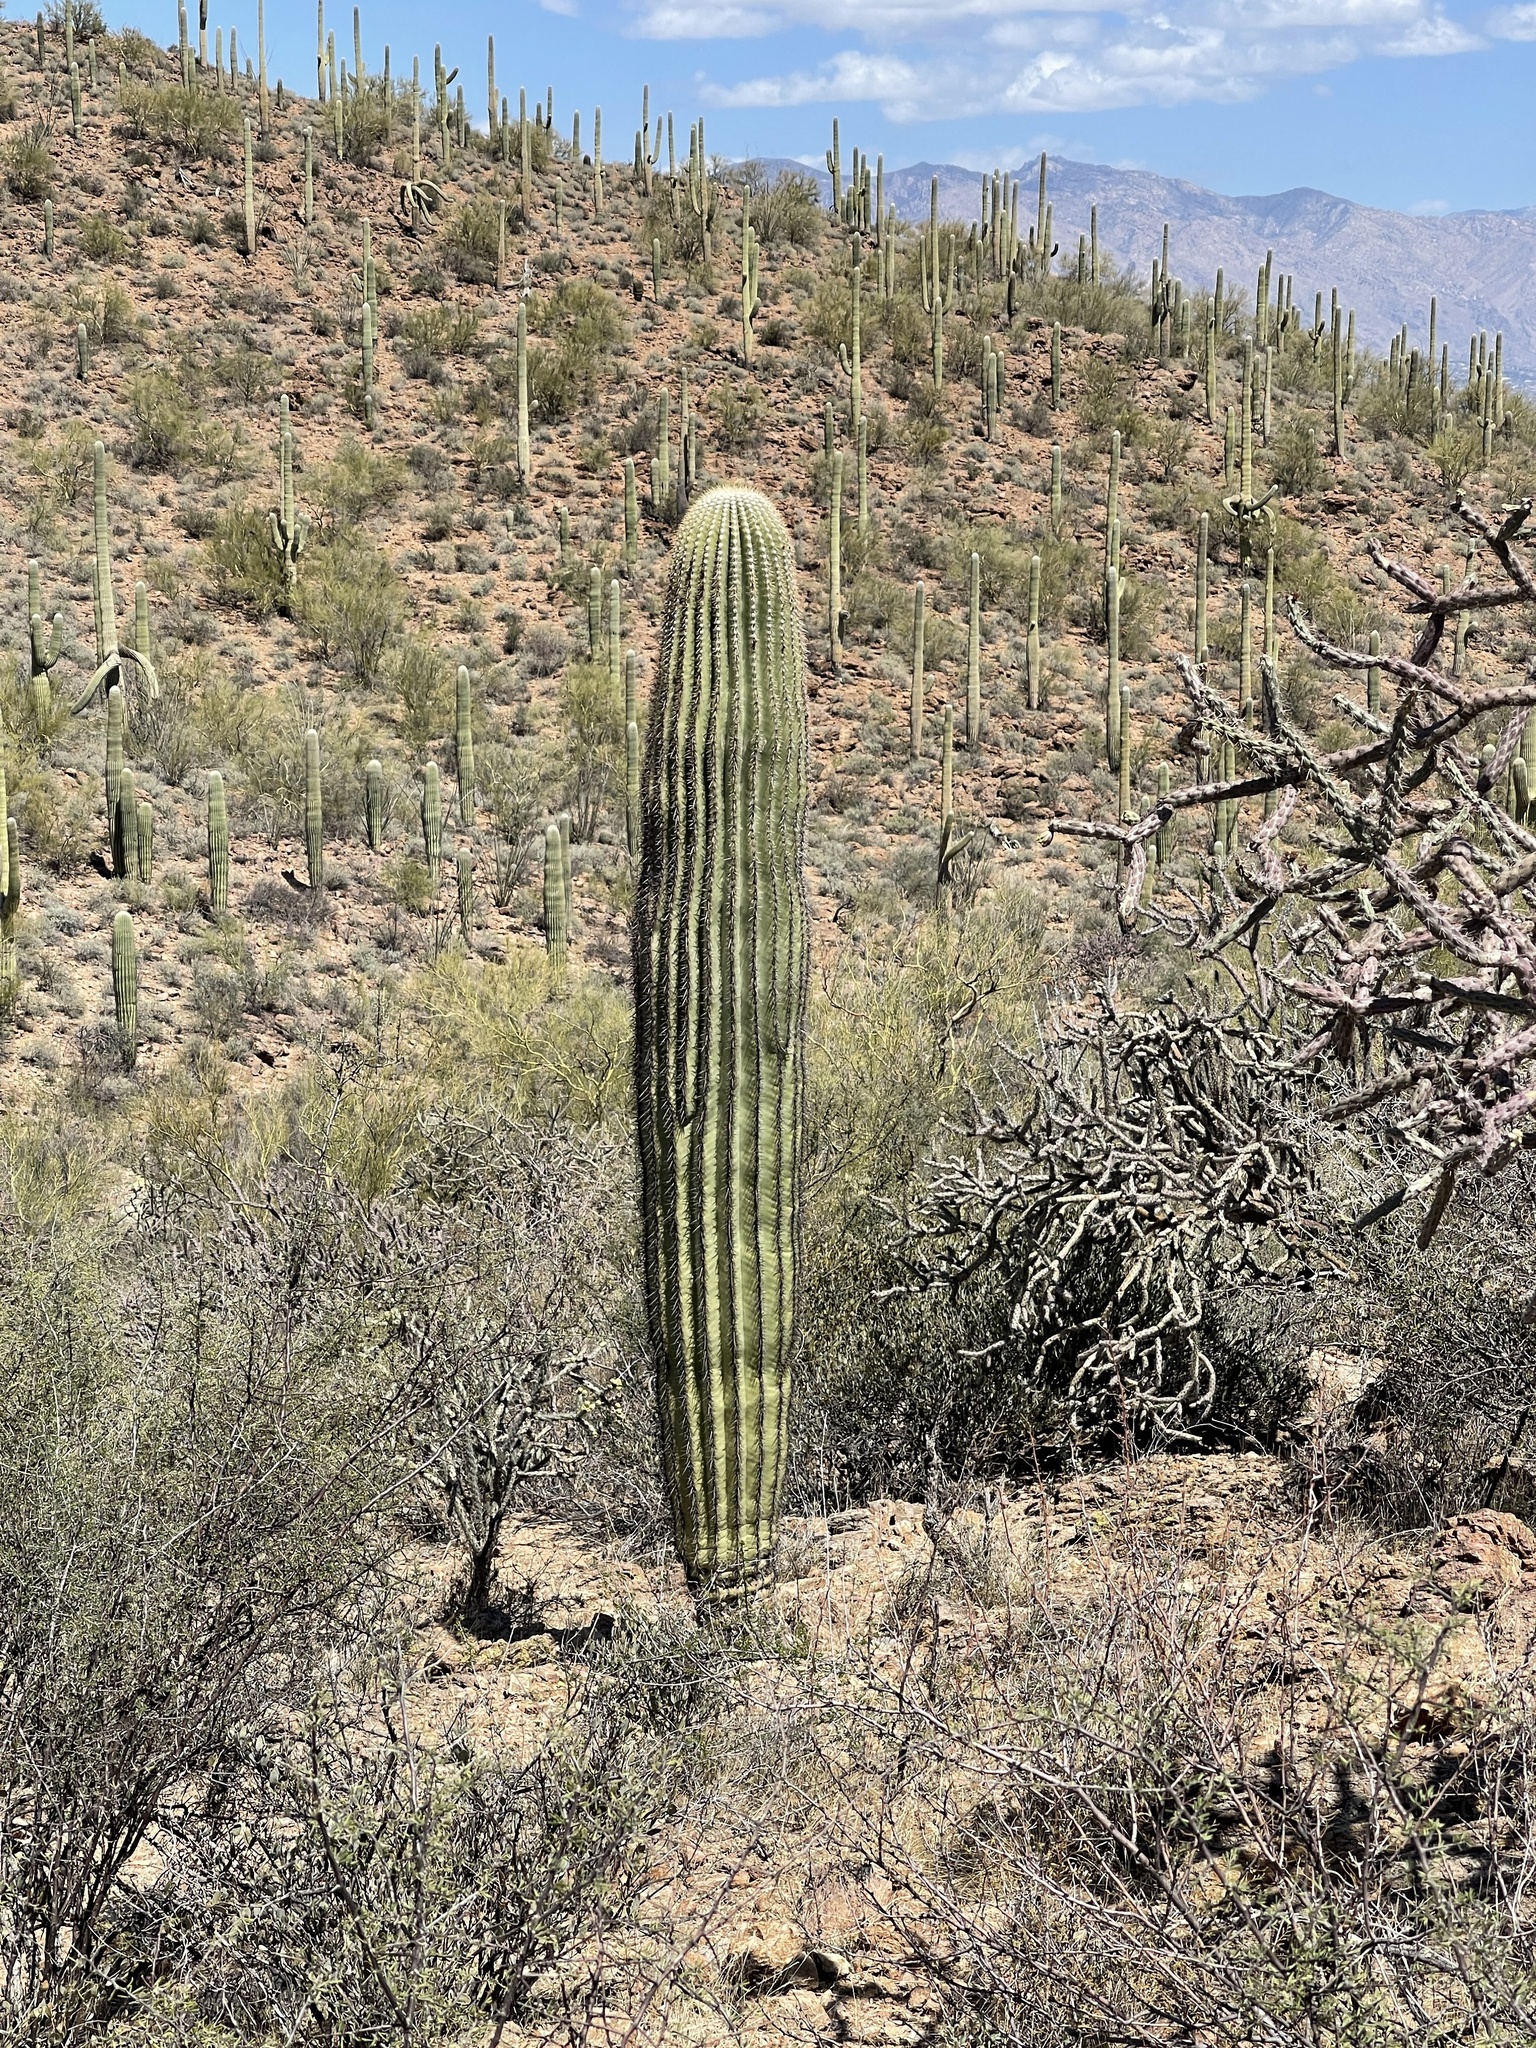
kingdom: Plantae
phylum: Tracheophyta
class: Magnoliopsida
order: Caryophyllales
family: Cactaceae
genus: Carnegiea
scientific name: Carnegiea gigantea
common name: Saguaro
